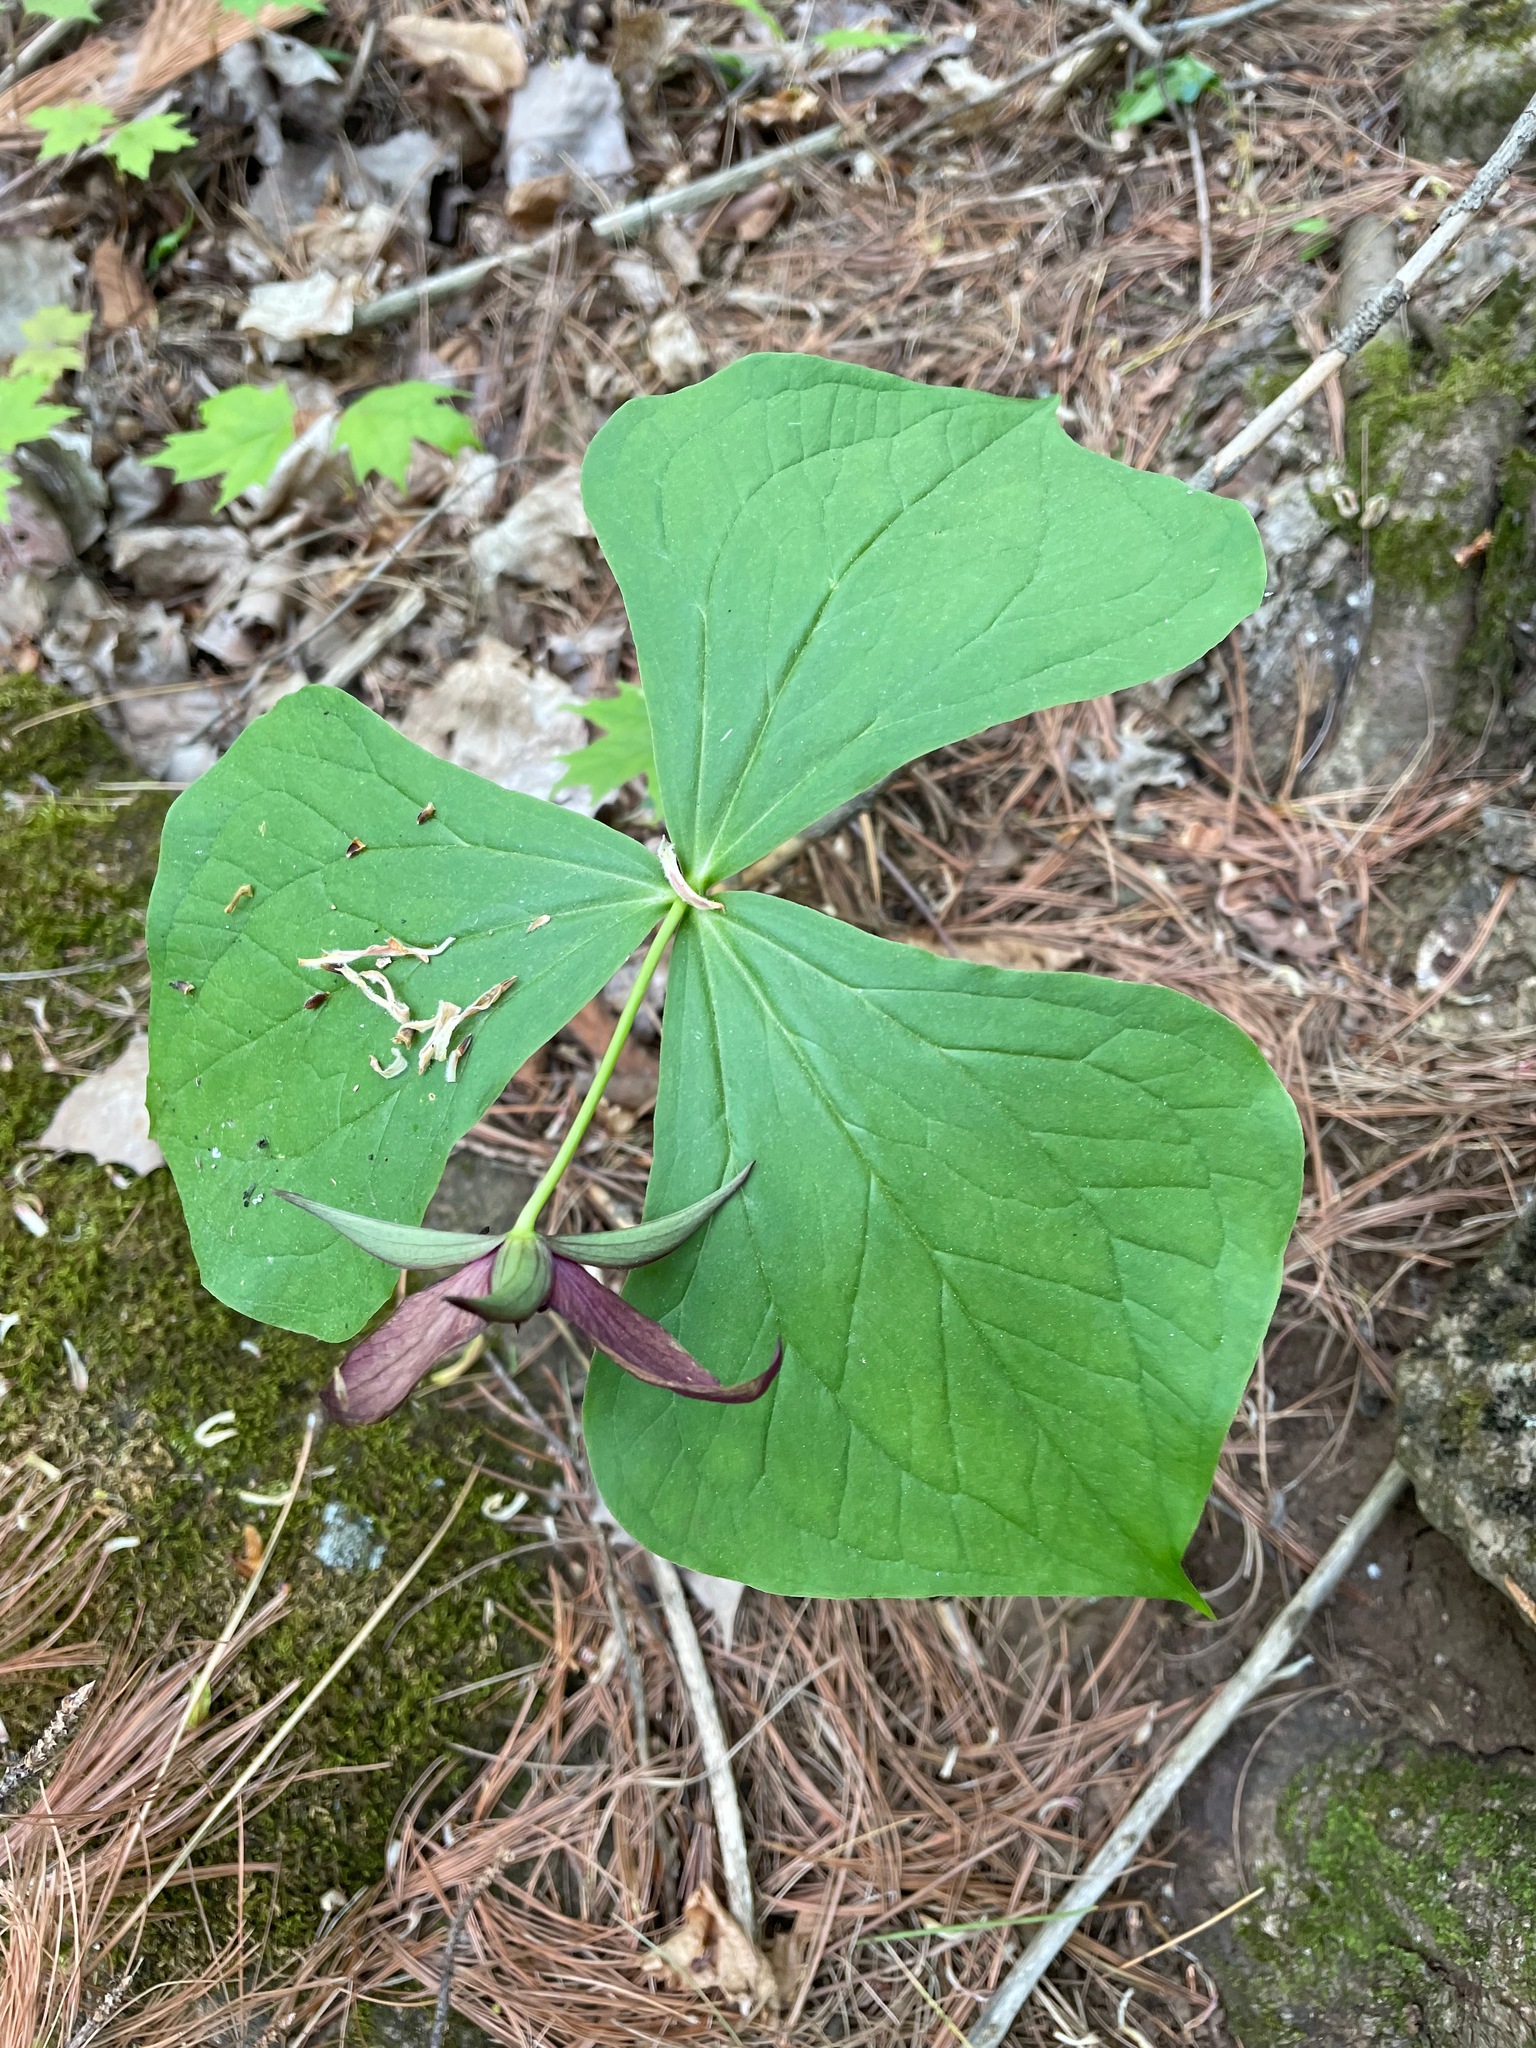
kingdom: Plantae
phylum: Tracheophyta
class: Liliopsida
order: Liliales
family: Melanthiaceae
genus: Trillium
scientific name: Trillium erectum
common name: Purple trillium
